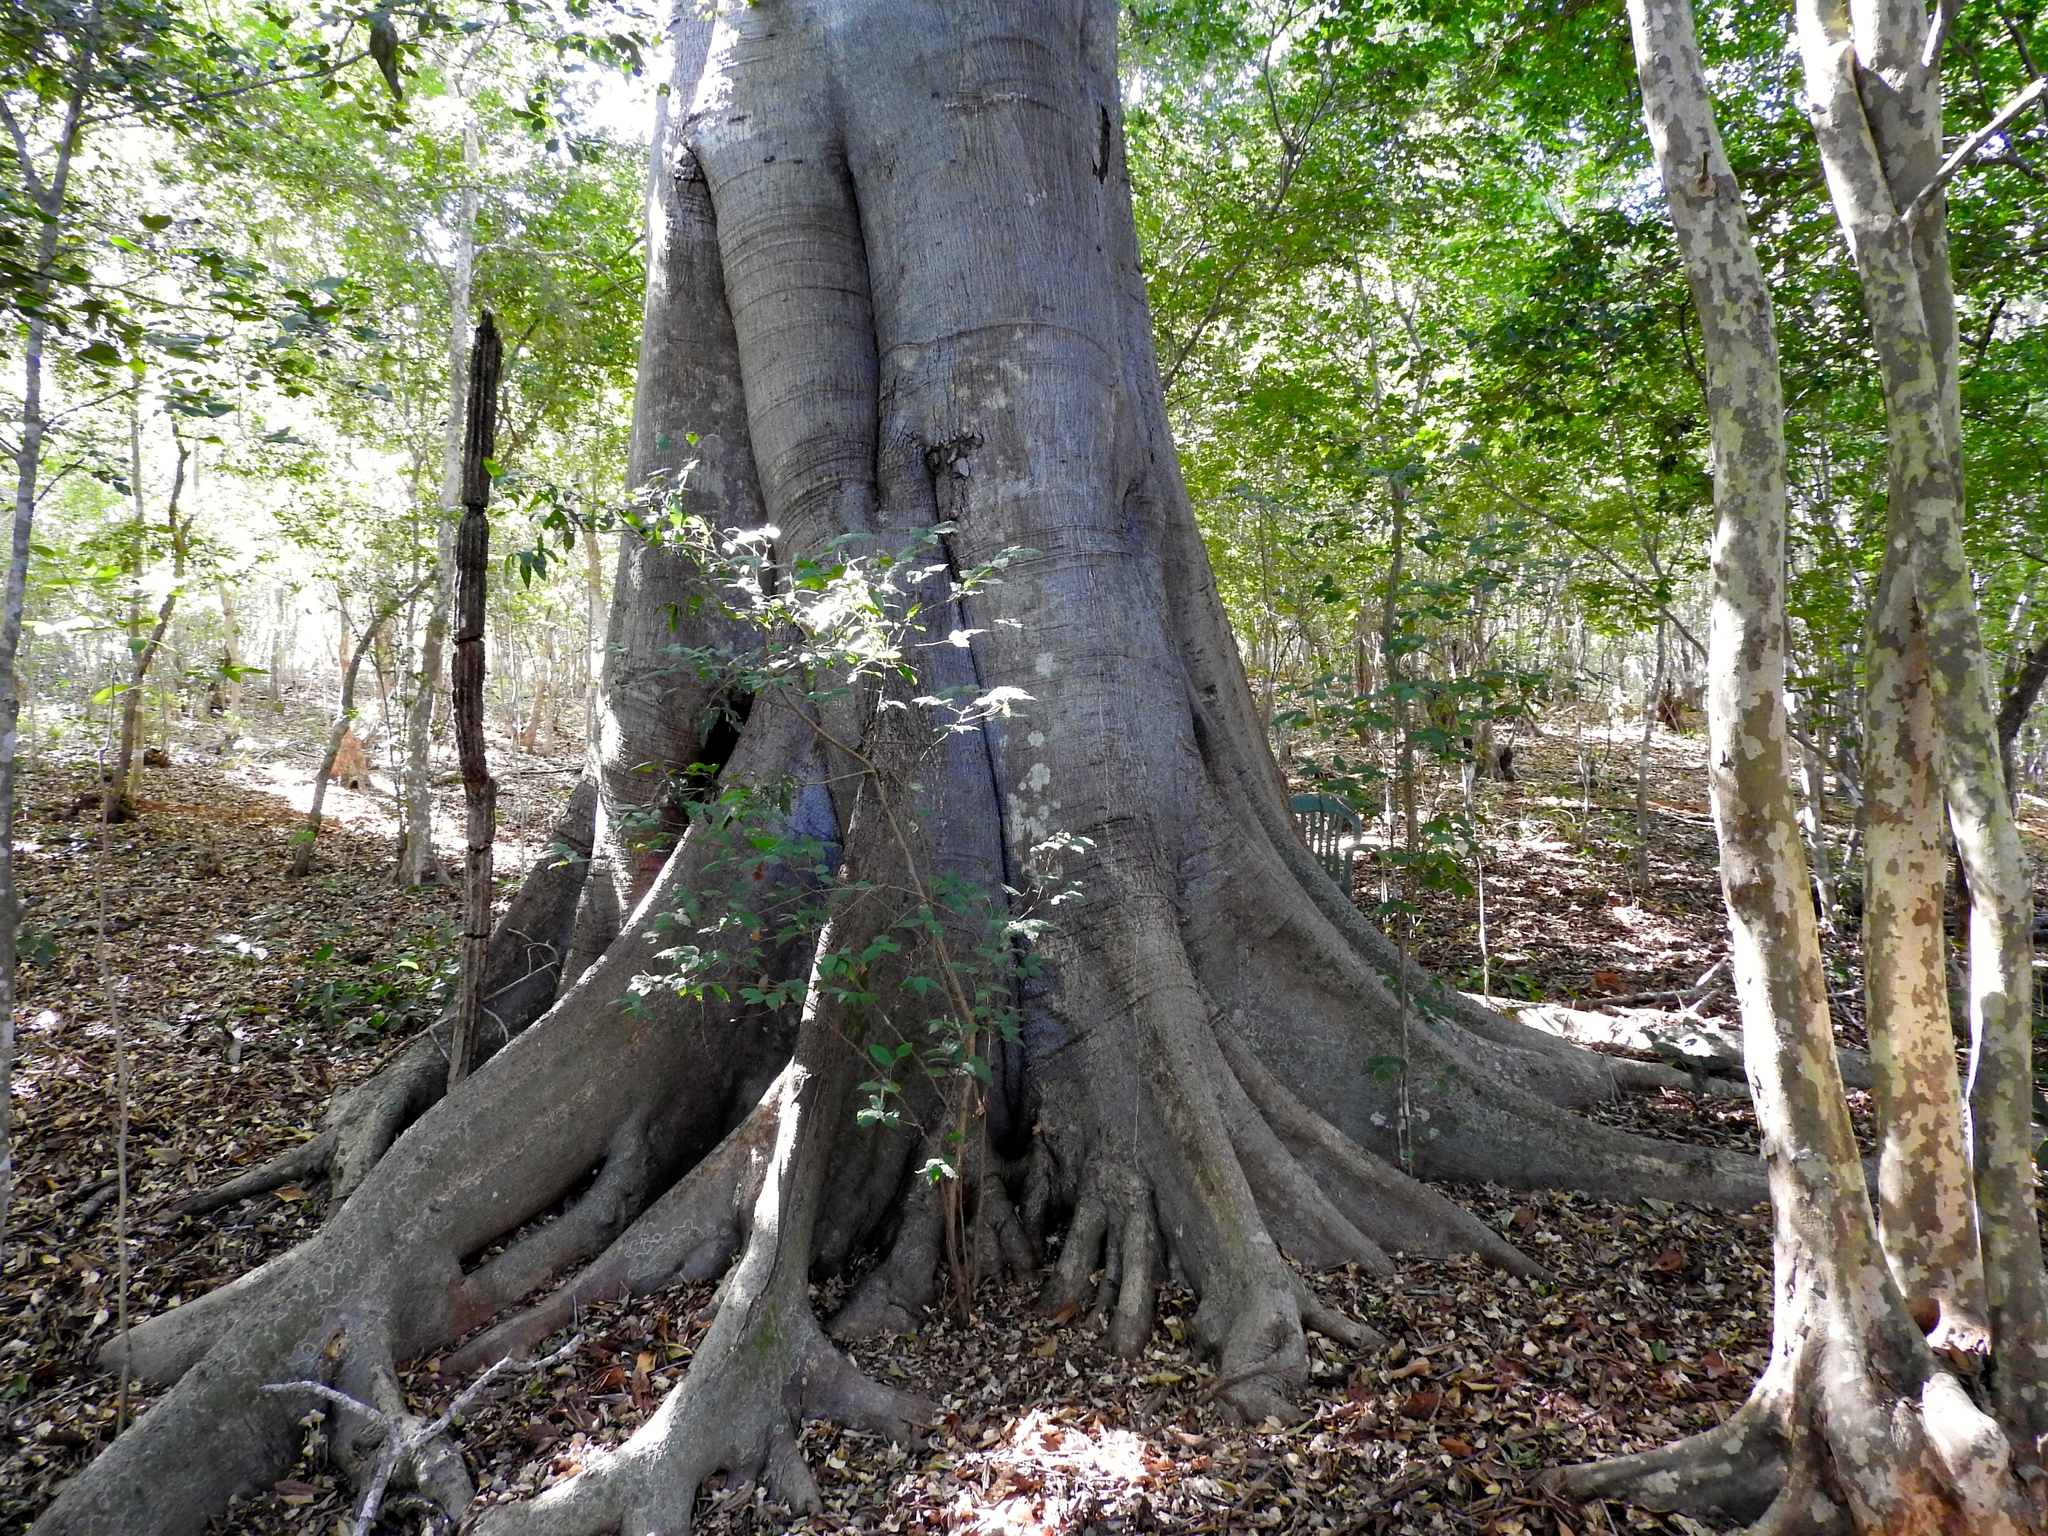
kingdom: Plantae
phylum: Tracheophyta
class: Magnoliopsida
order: Rosales
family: Moraceae
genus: Ficus
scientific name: Ficus insipida
